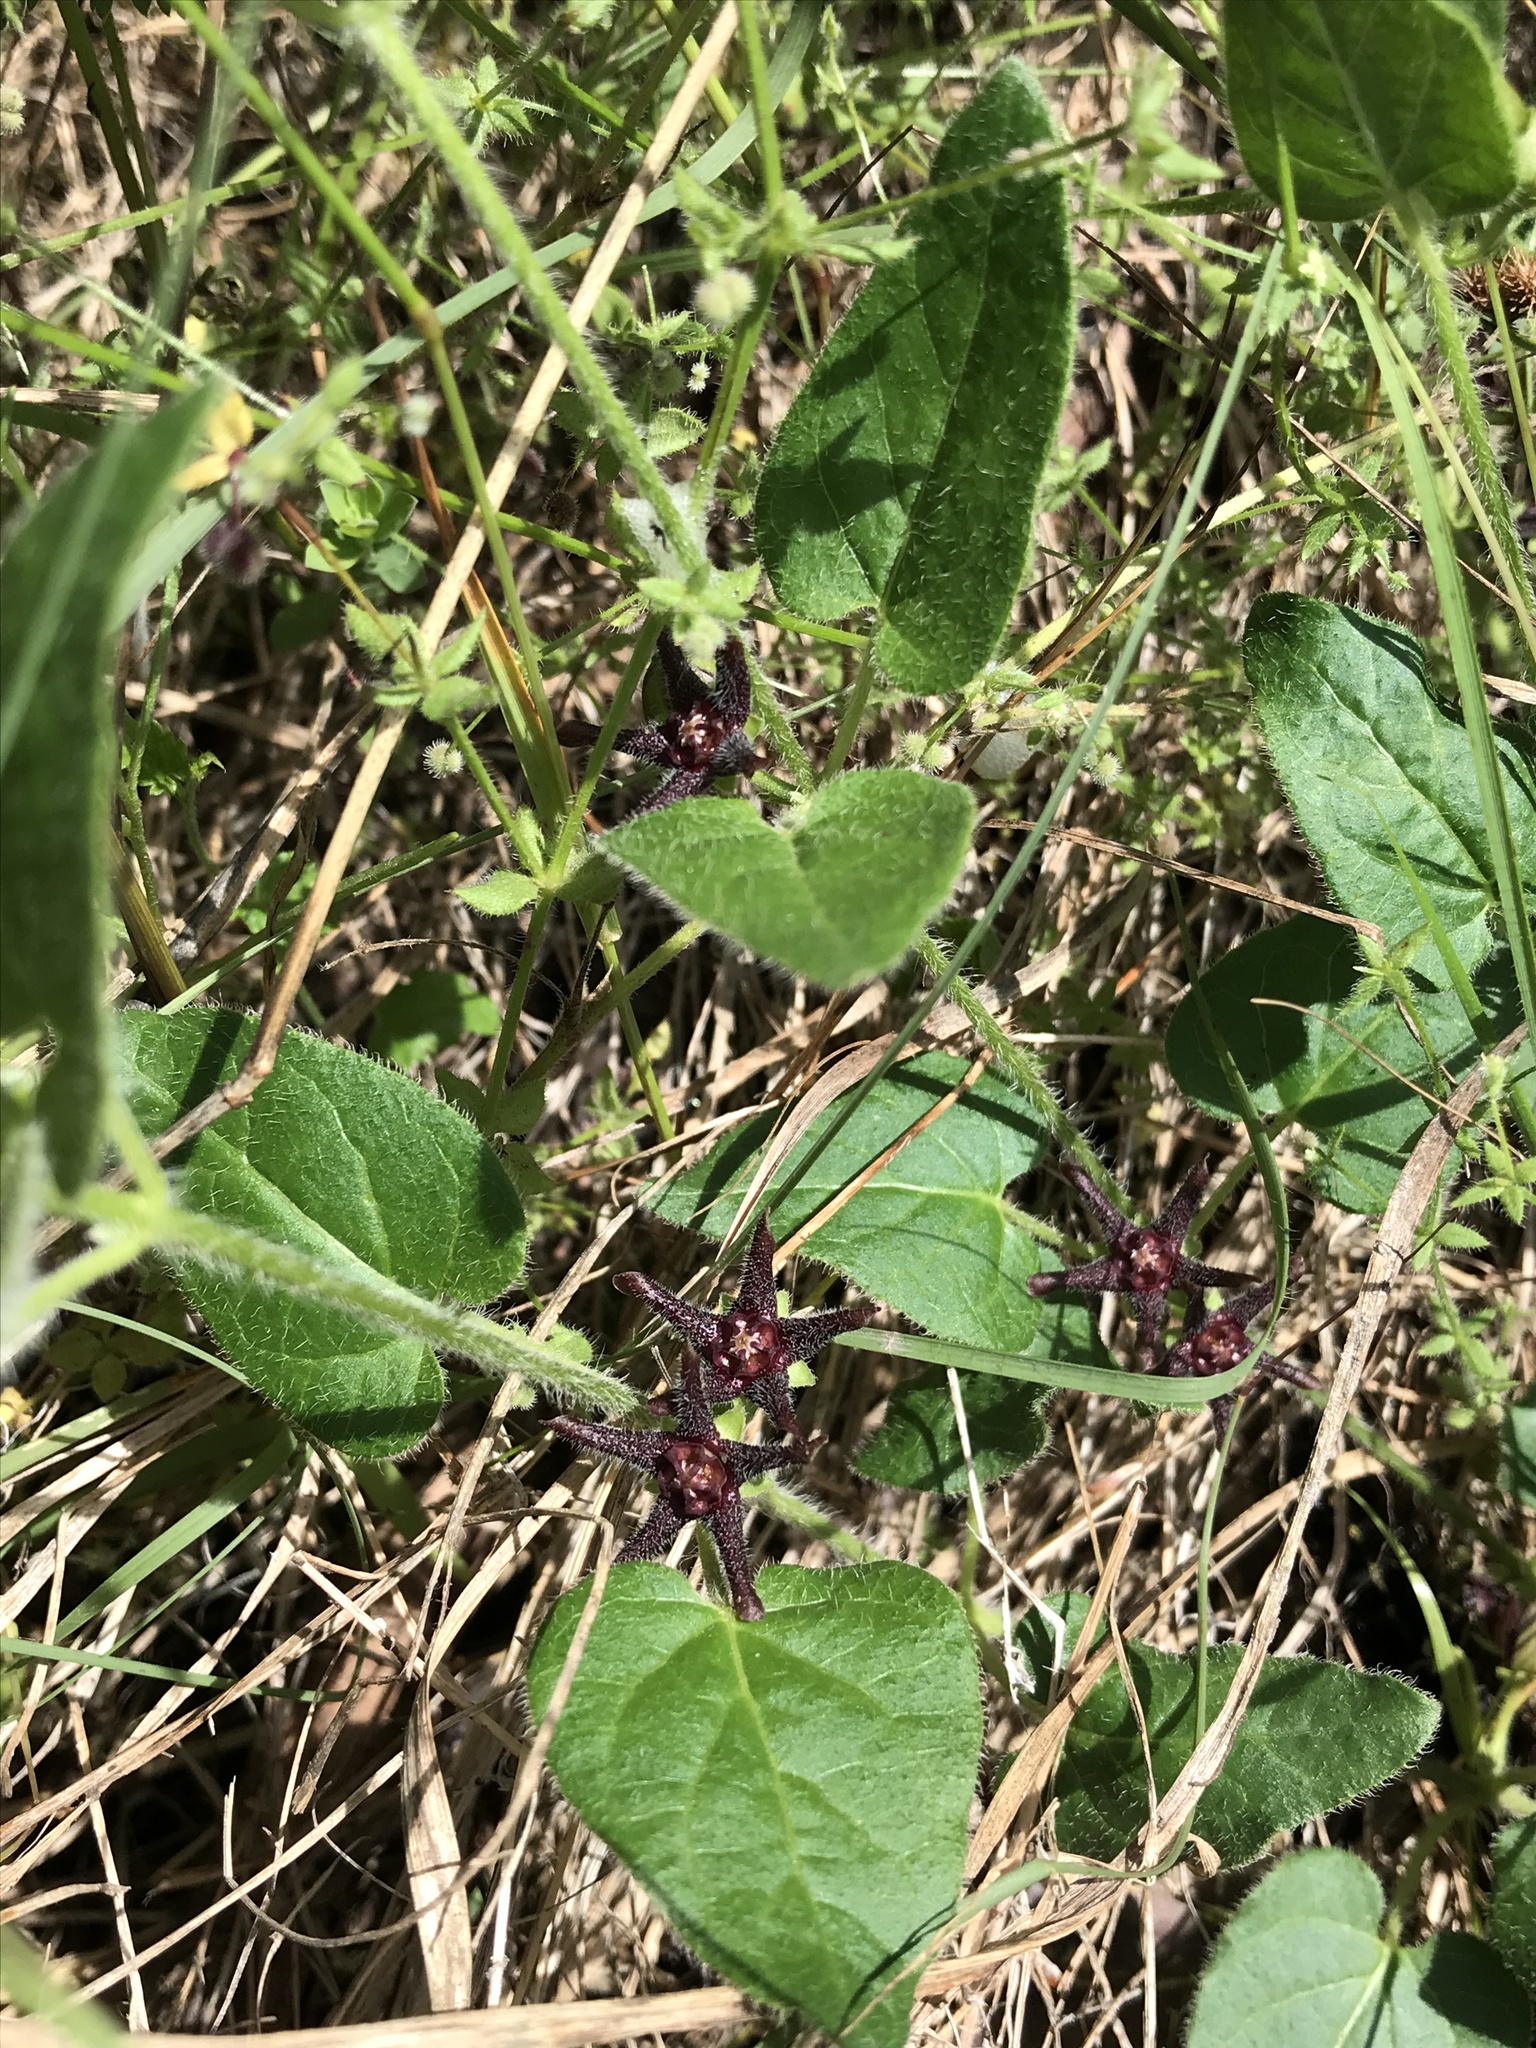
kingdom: Plantae
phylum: Tracheophyta
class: Magnoliopsida
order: Gentianales
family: Apocynaceae
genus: Chthamalia
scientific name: Chthamalia biflora
